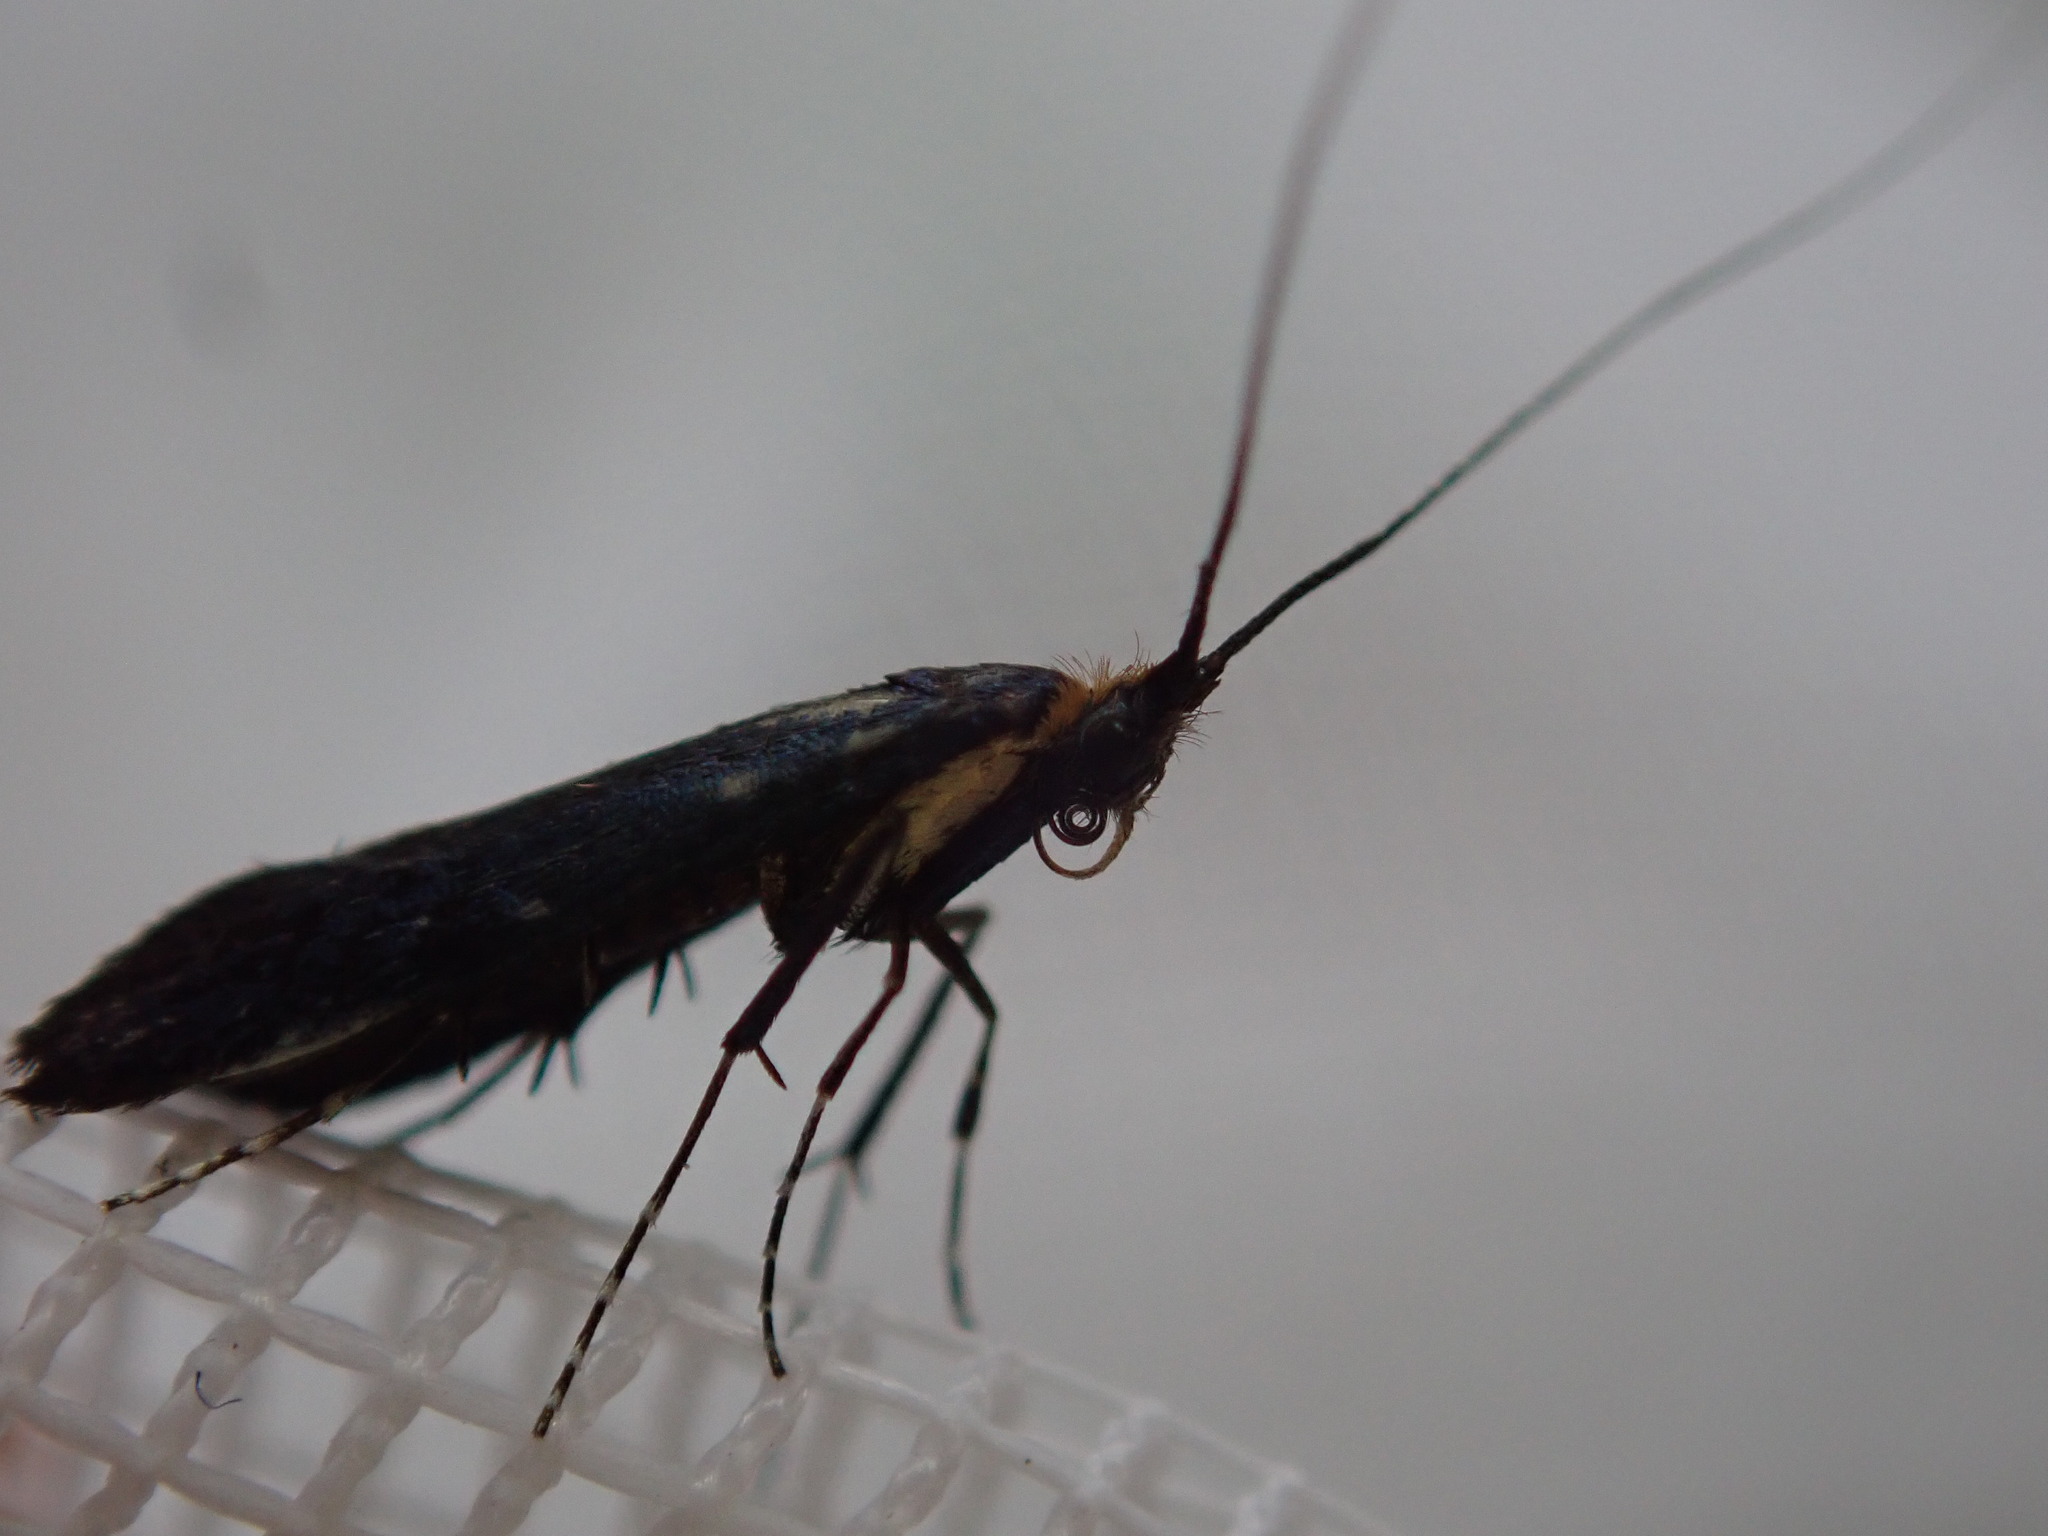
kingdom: Animalia
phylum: Arthropoda
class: Insecta
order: Lepidoptera
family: Adelidae
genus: Adela
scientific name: Adela caeruleella
